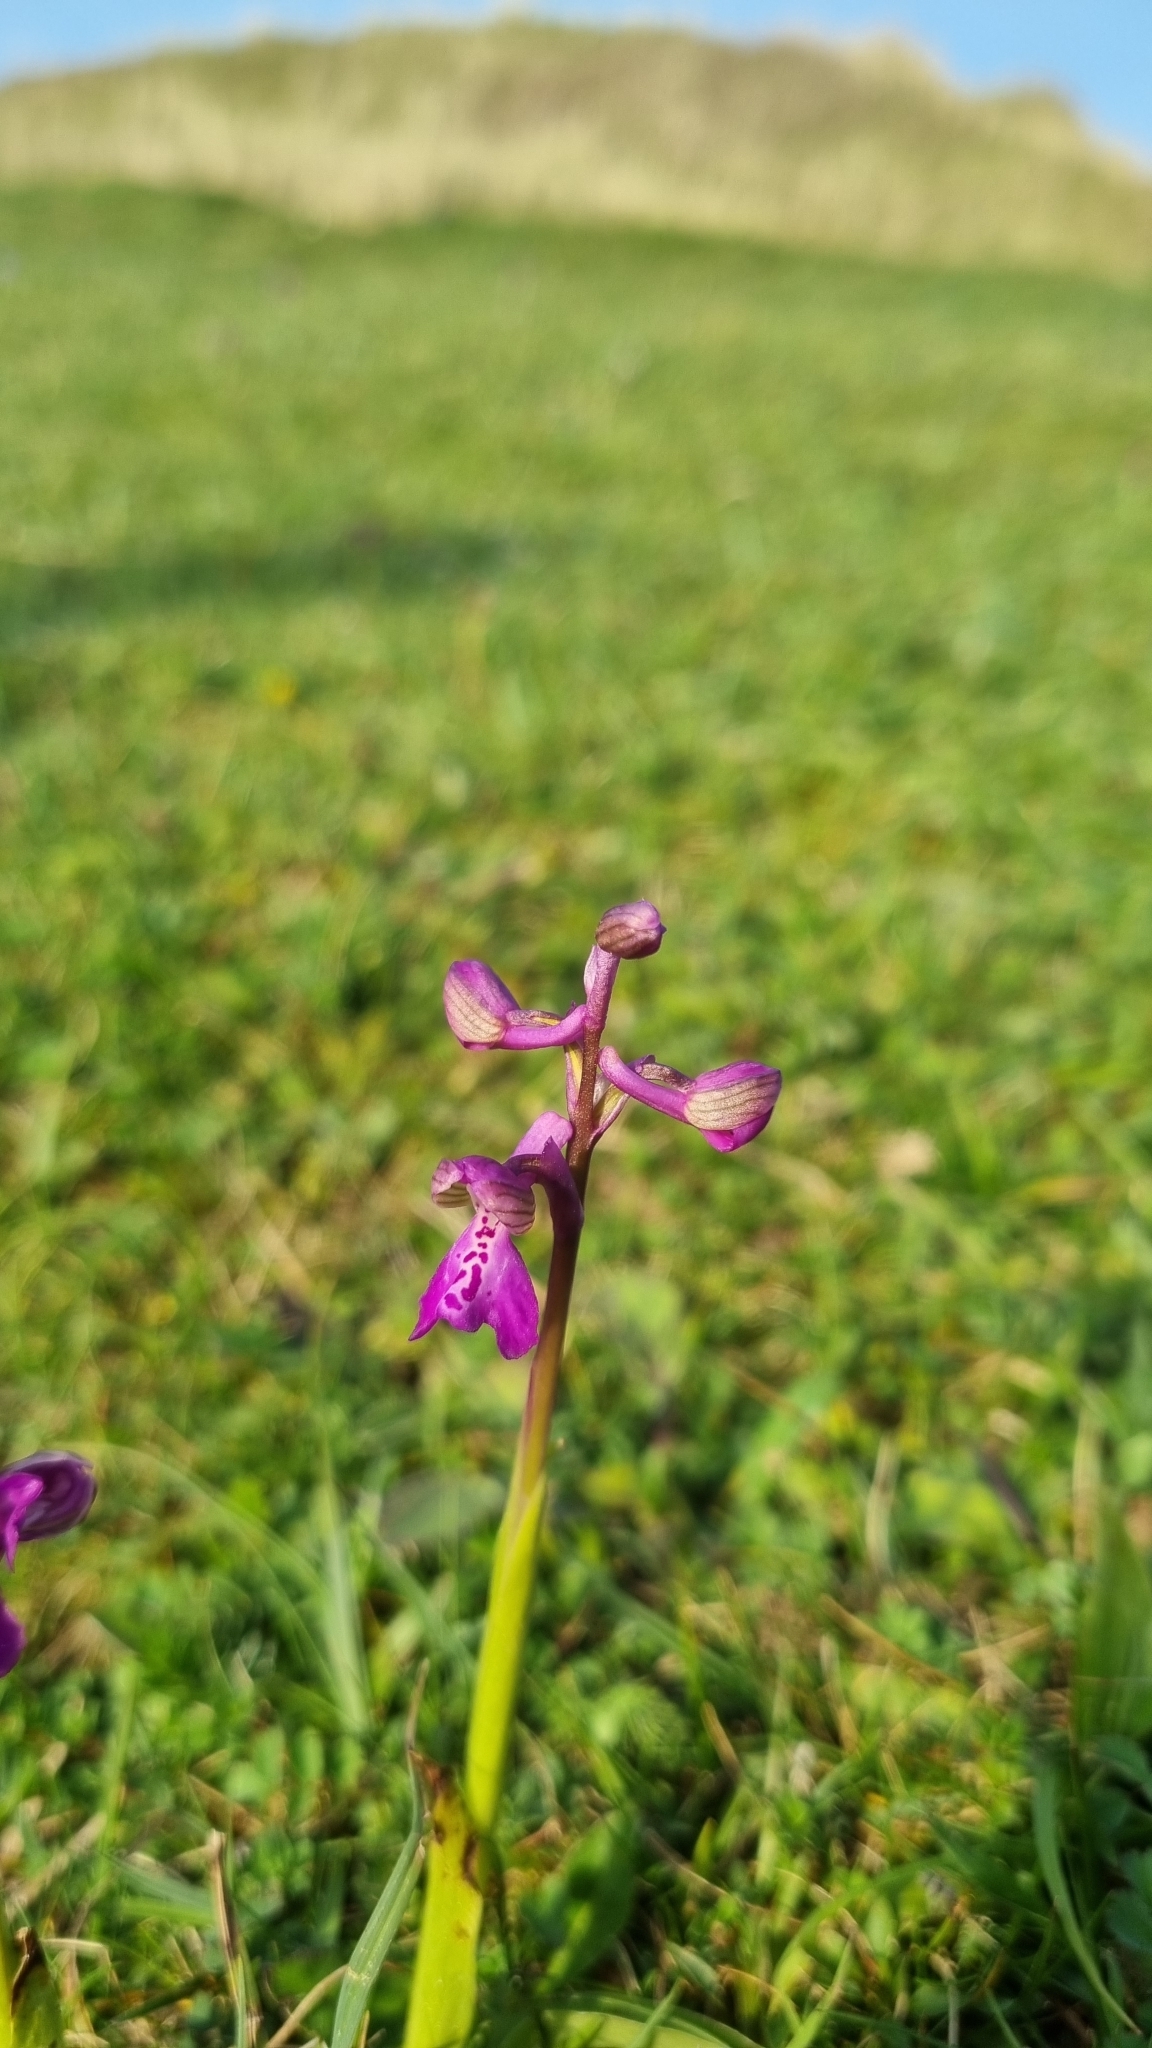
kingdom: Plantae
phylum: Tracheophyta
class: Liliopsida
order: Asparagales
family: Orchidaceae
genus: Anacamptis
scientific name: Anacamptis morio
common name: Green-winged orchid
